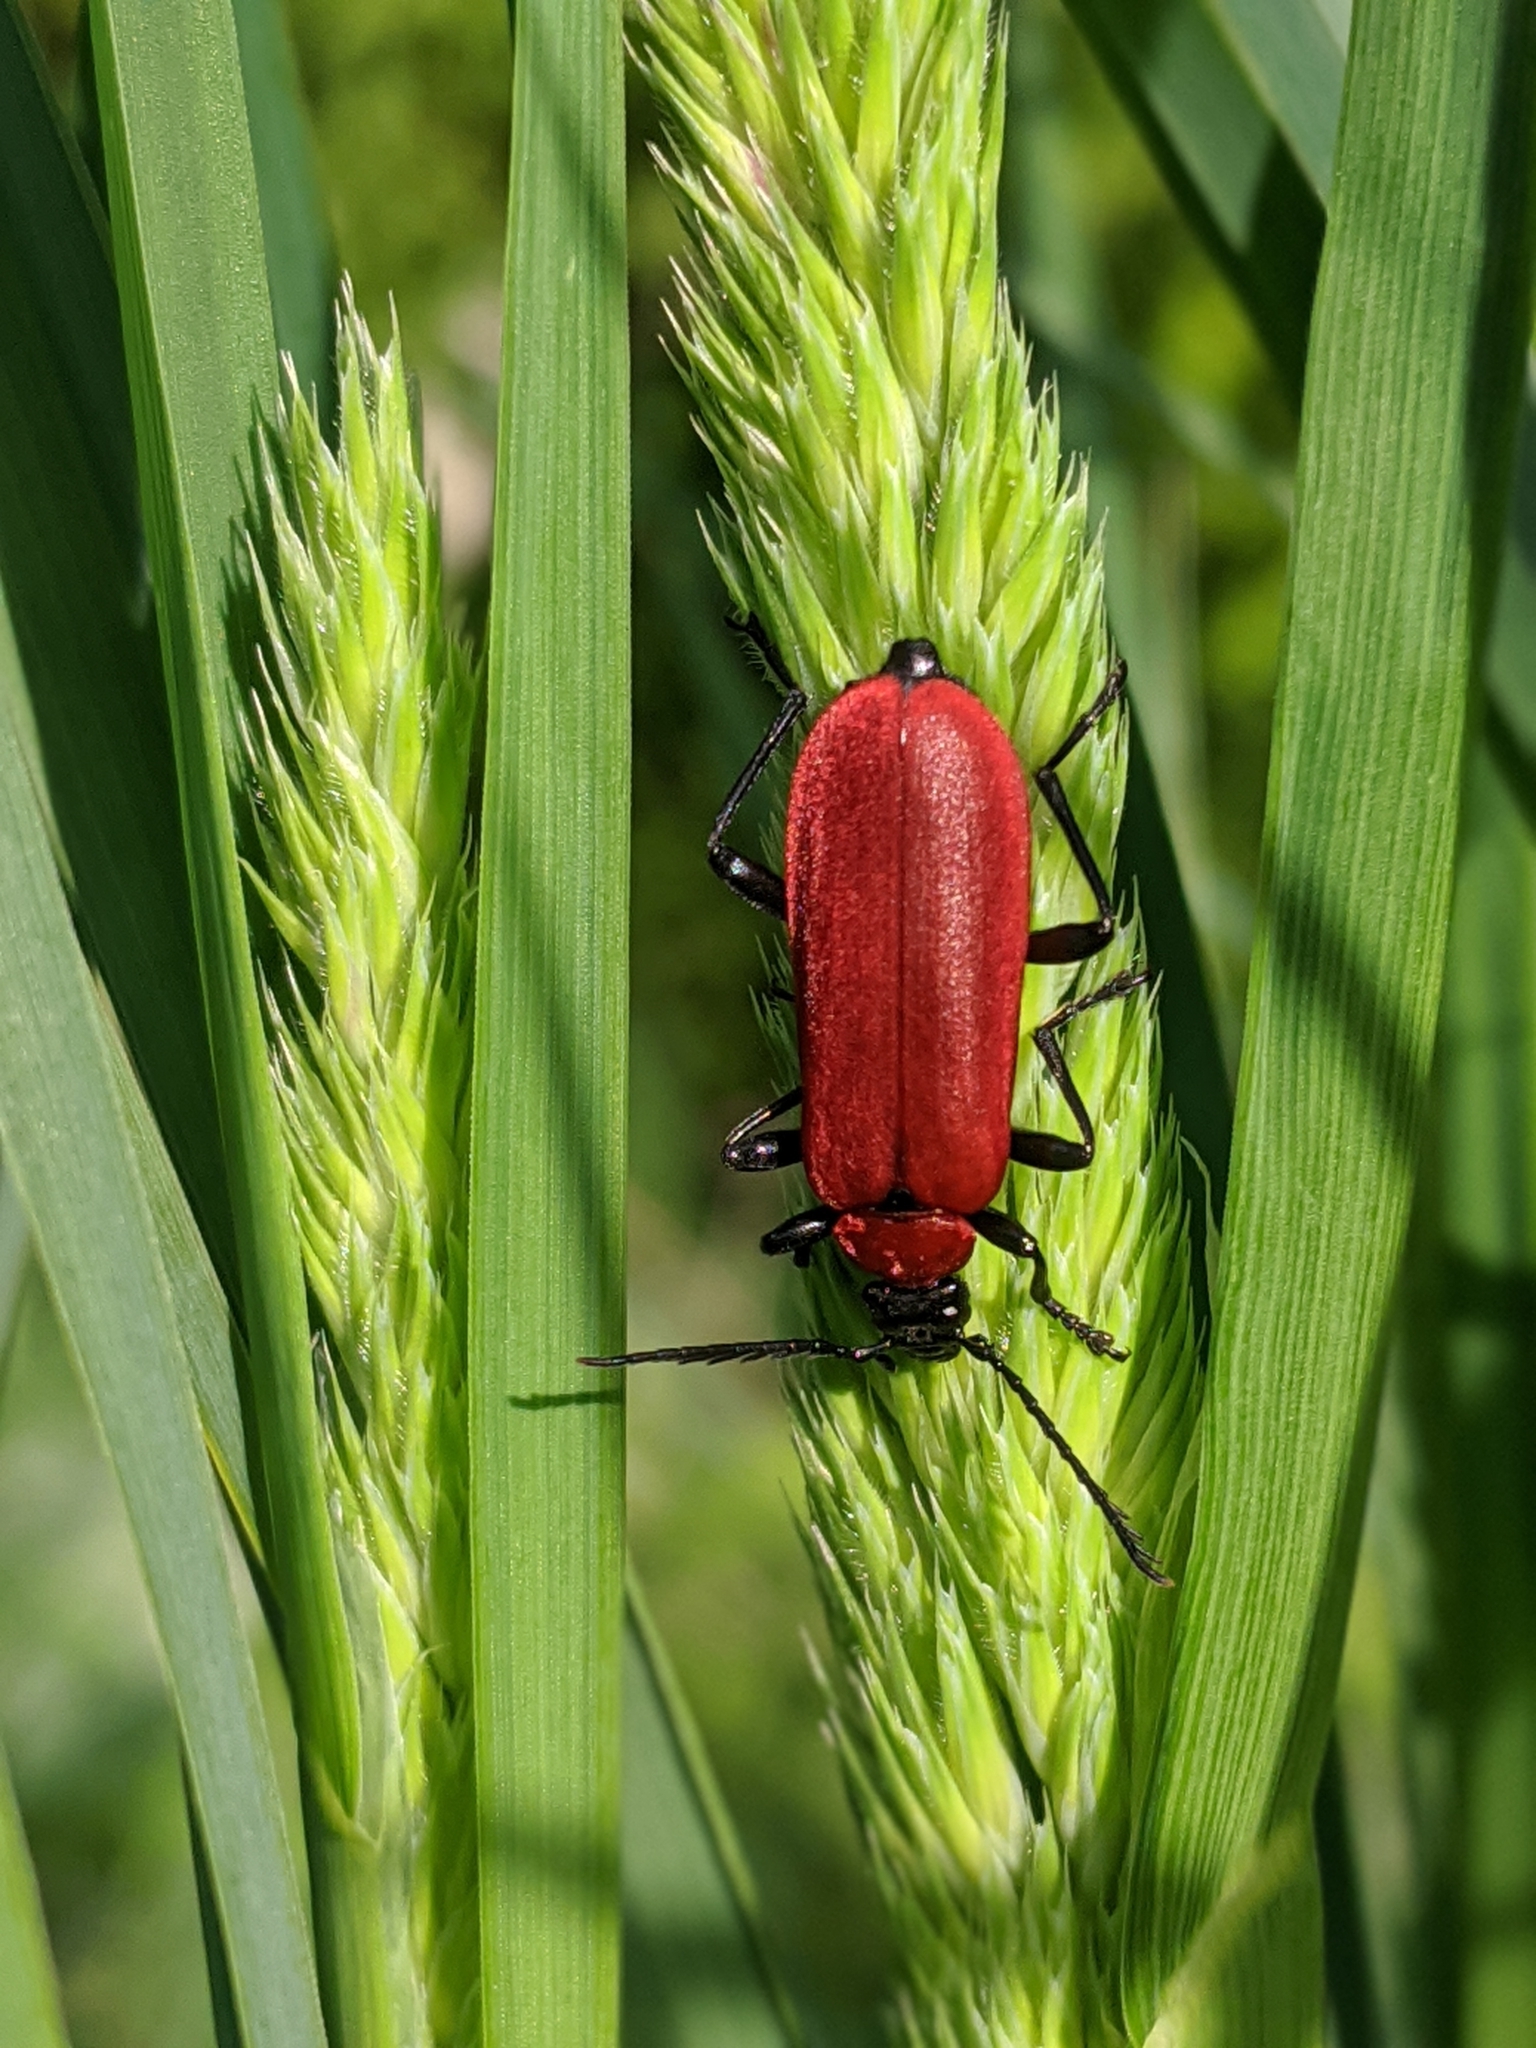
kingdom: Animalia
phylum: Arthropoda
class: Insecta
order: Coleoptera
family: Pyrochroidae
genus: Pyrochroa
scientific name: Pyrochroa coccinea
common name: Black-headed cardinal beetle
